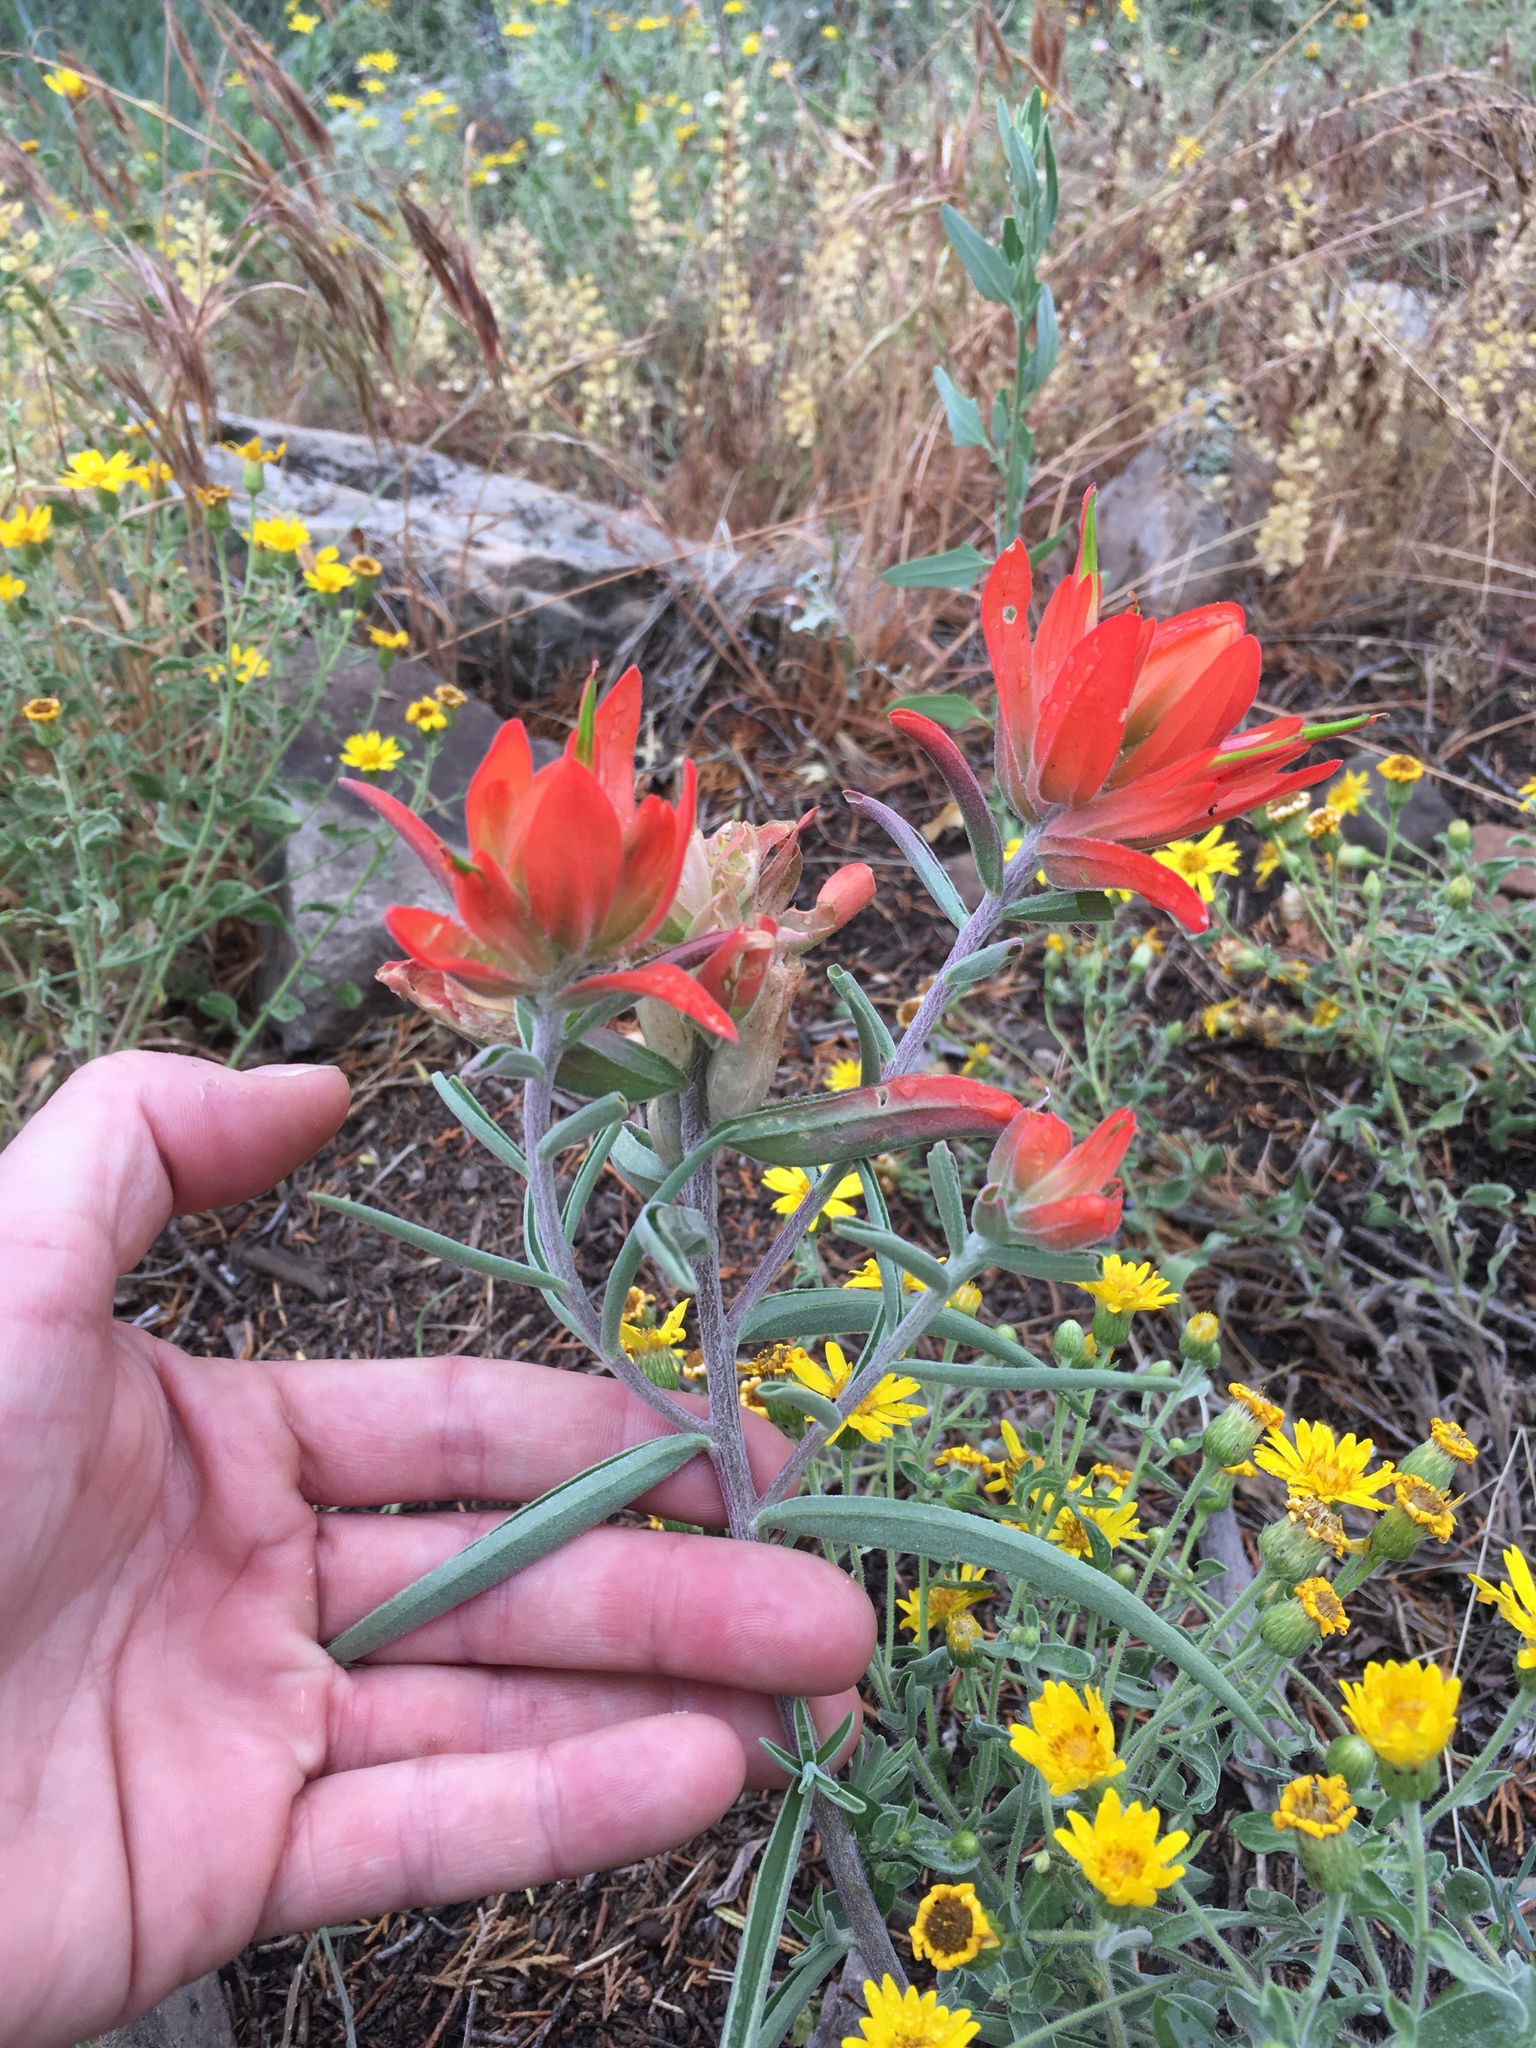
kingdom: Plantae
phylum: Tracheophyta
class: Magnoliopsida
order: Lamiales
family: Orobanchaceae
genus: Castilleja
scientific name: Castilleja integra
